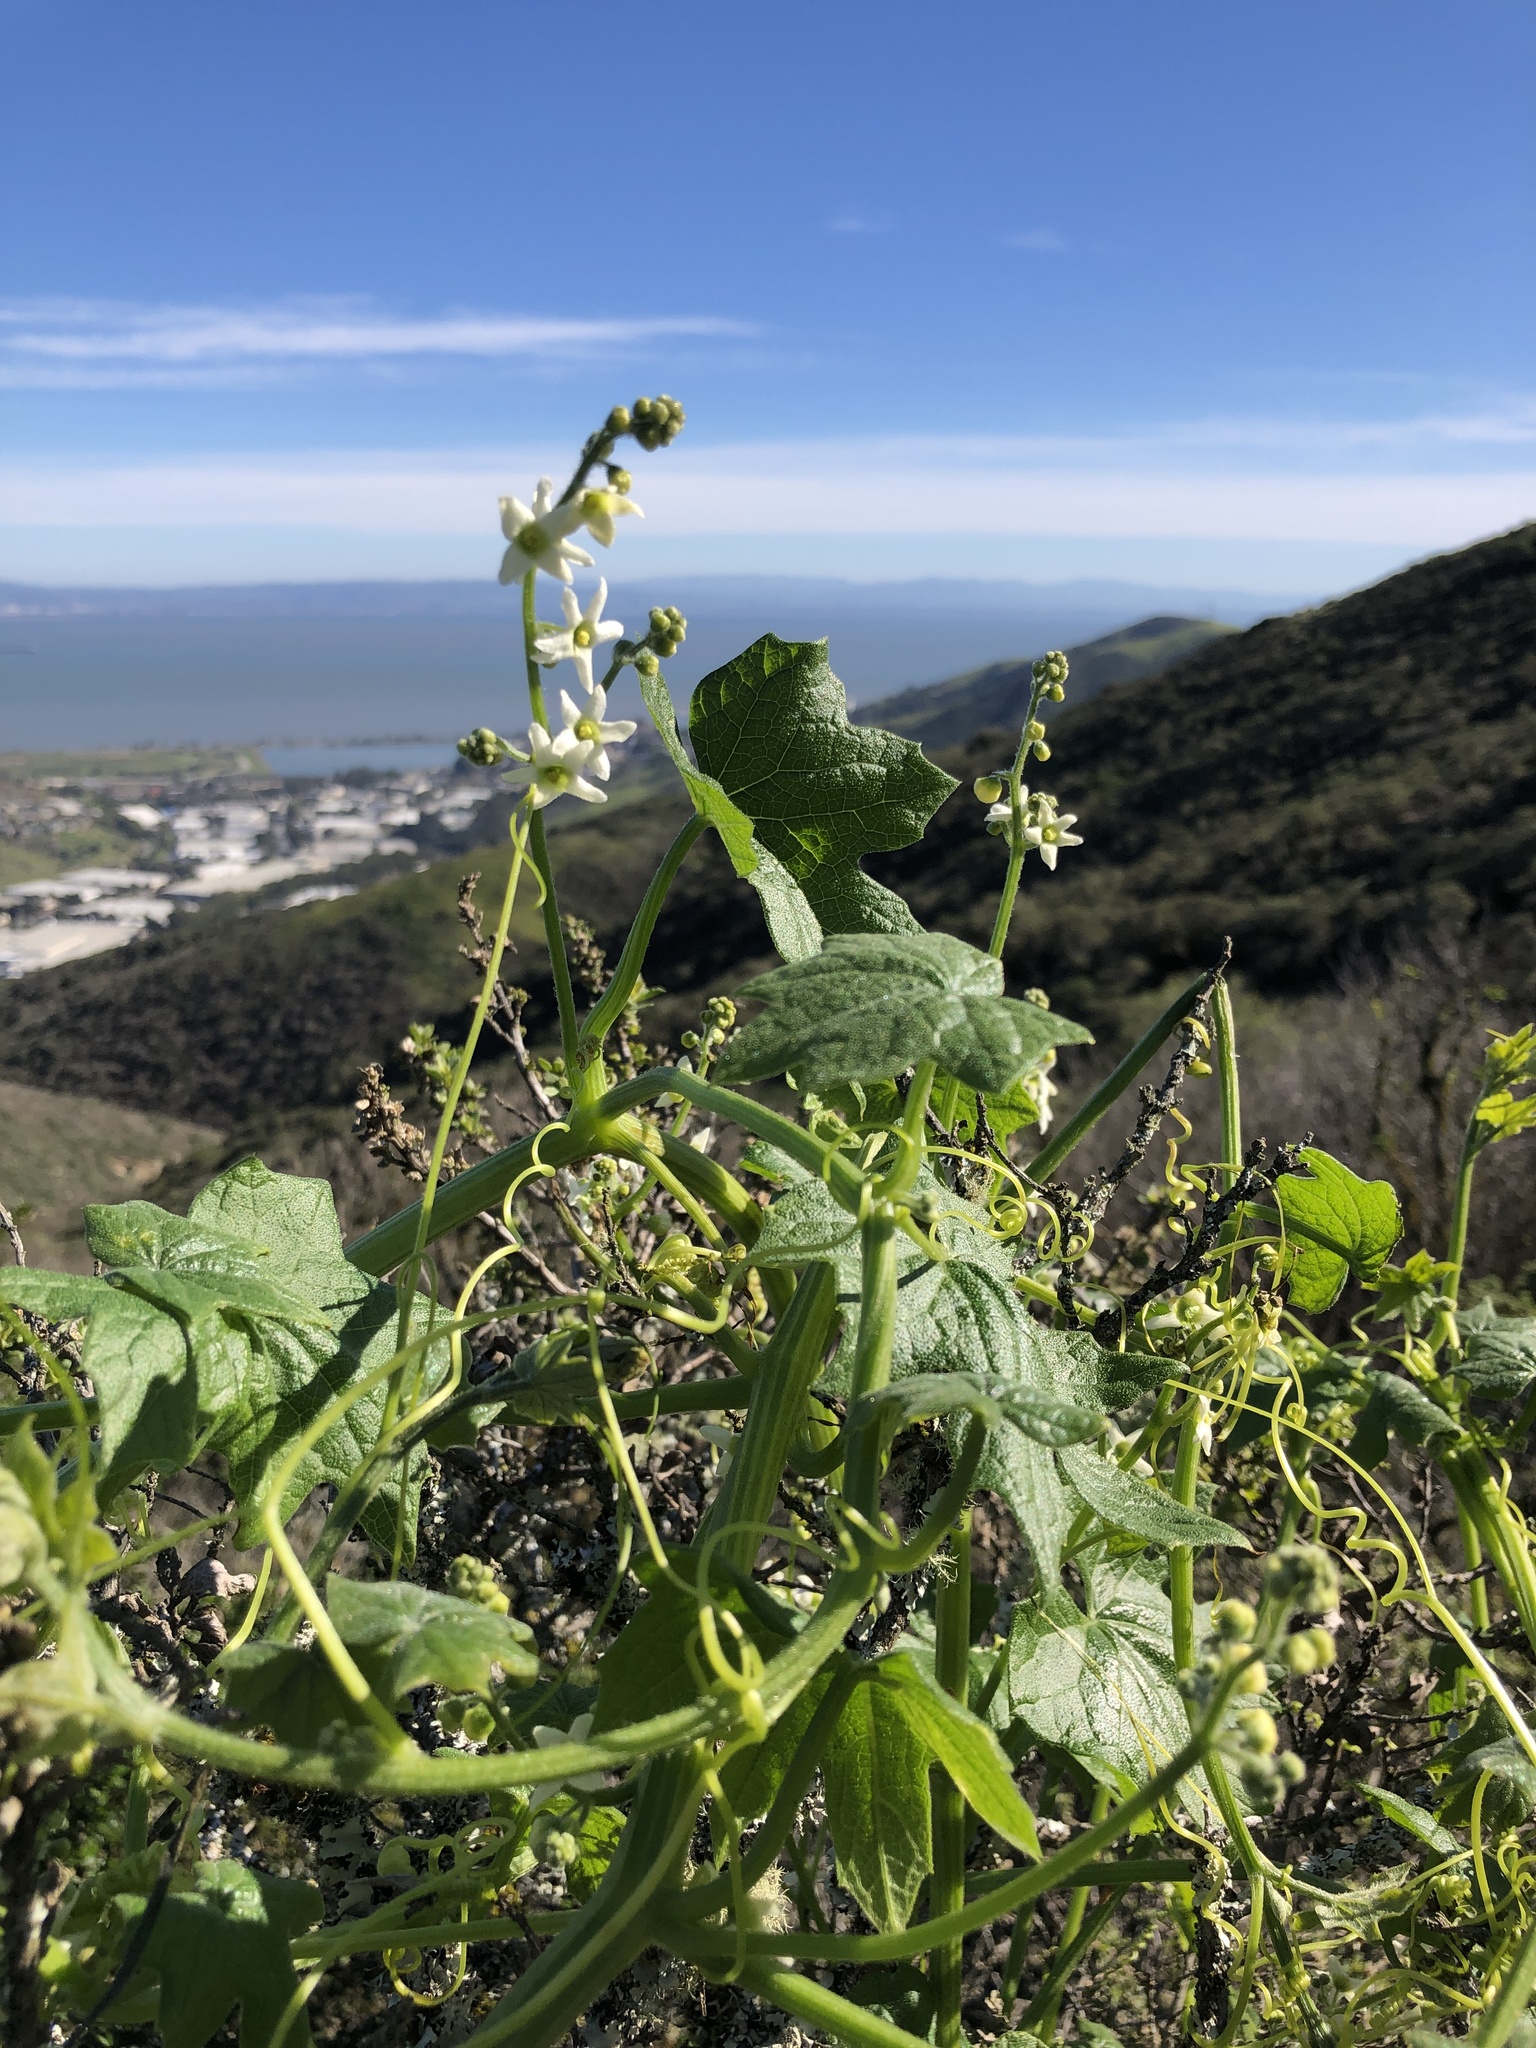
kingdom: Plantae
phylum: Tracheophyta
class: Magnoliopsida
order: Cucurbitales
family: Cucurbitaceae
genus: Marah
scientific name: Marah oregana
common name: Coastal manroot
